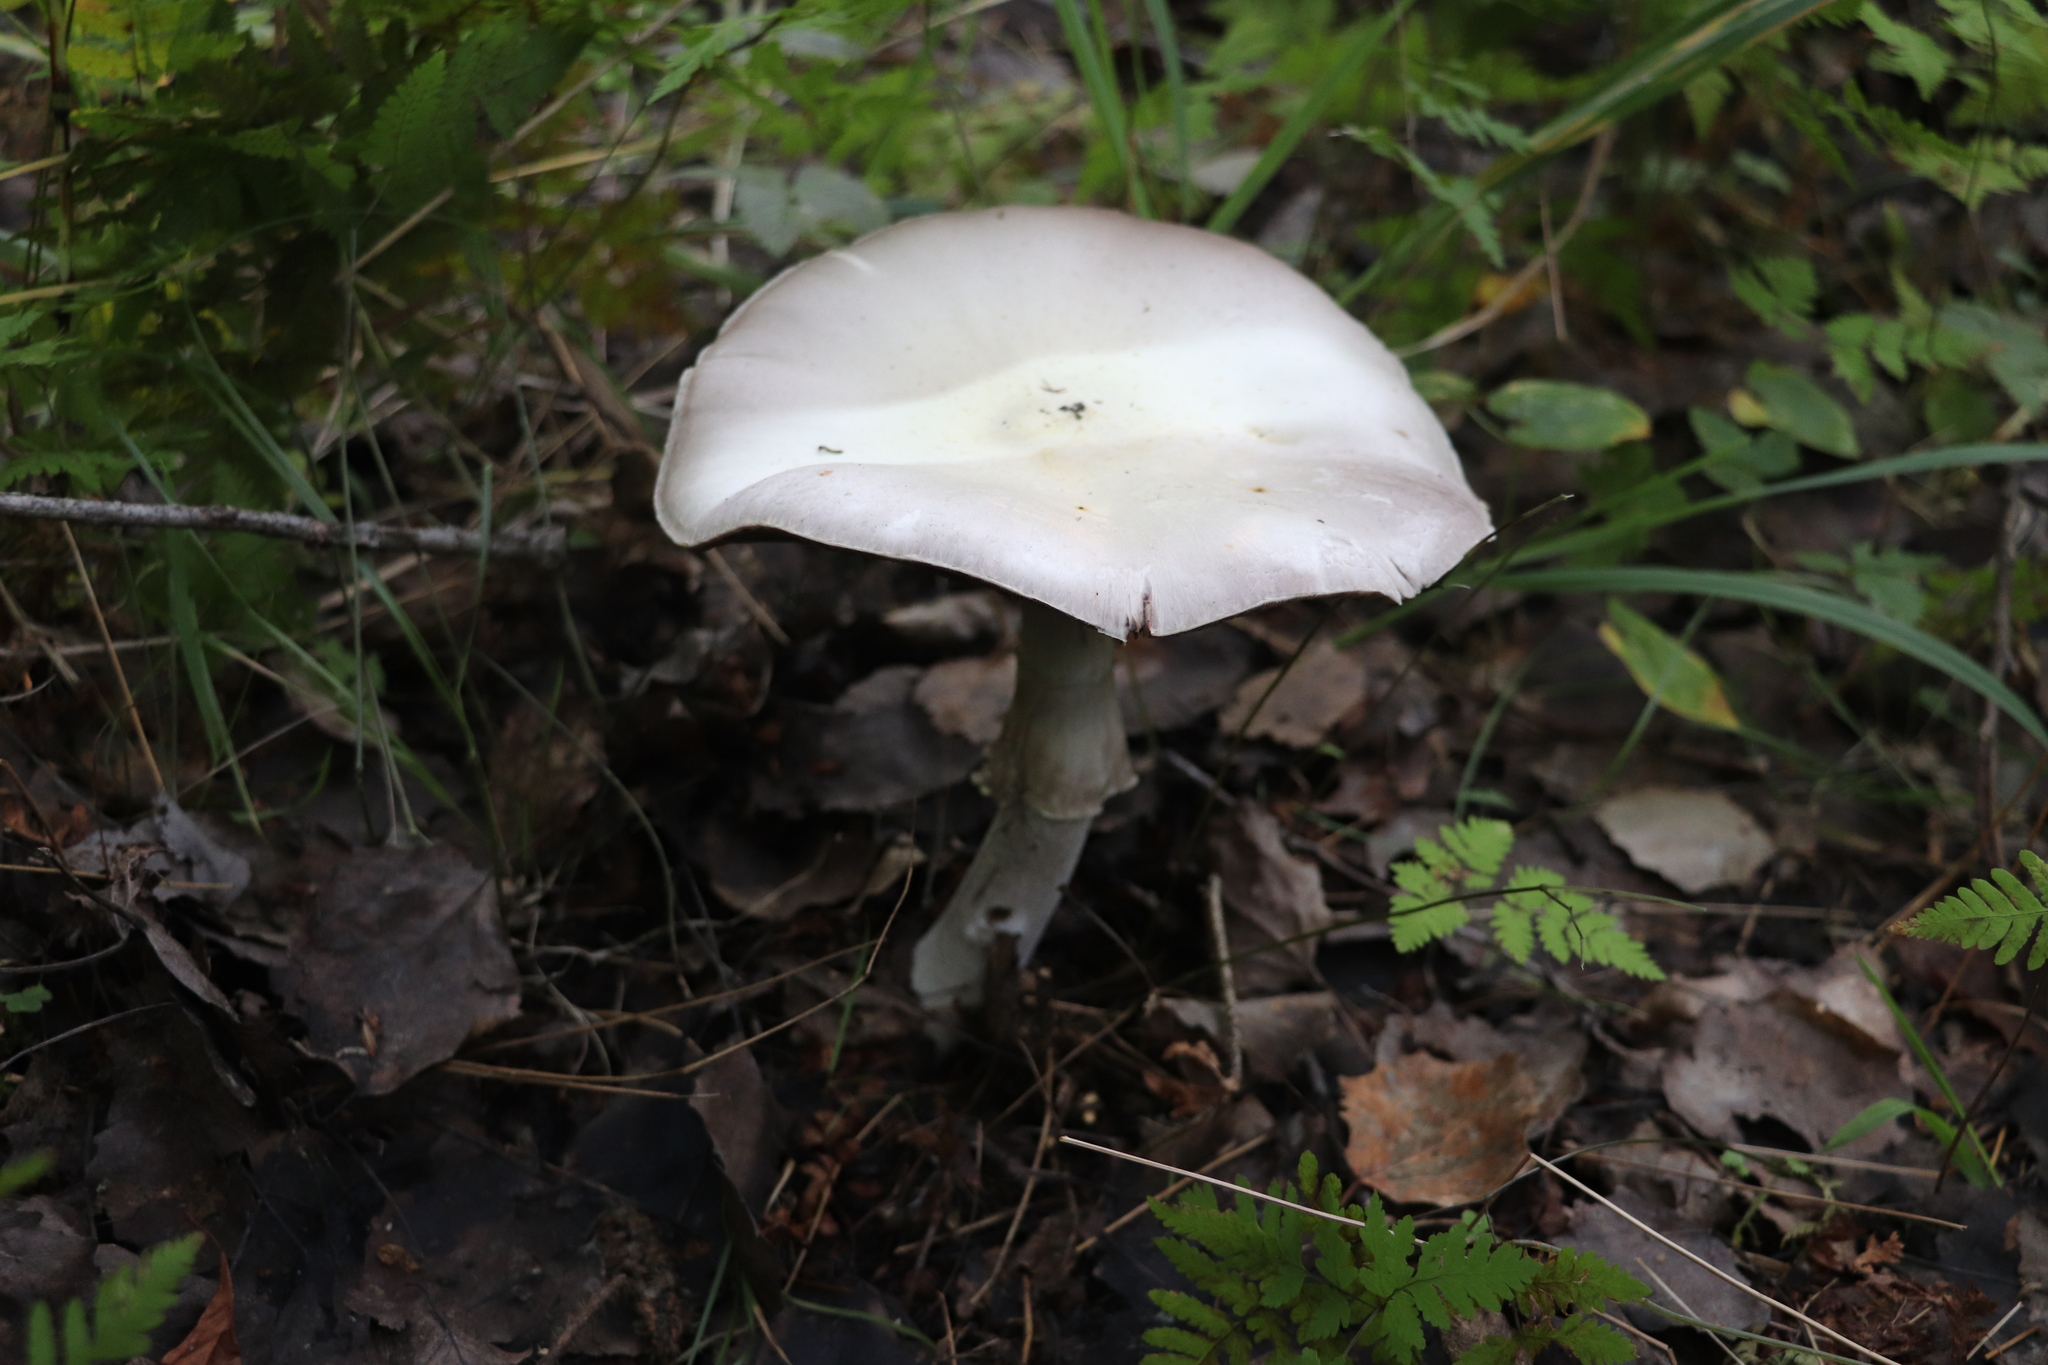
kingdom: Fungi
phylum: Basidiomycota
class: Agaricomycetes
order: Agaricales
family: Agaricaceae
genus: Agaricus
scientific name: Agaricus sylvicola
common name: Wood mushroom
